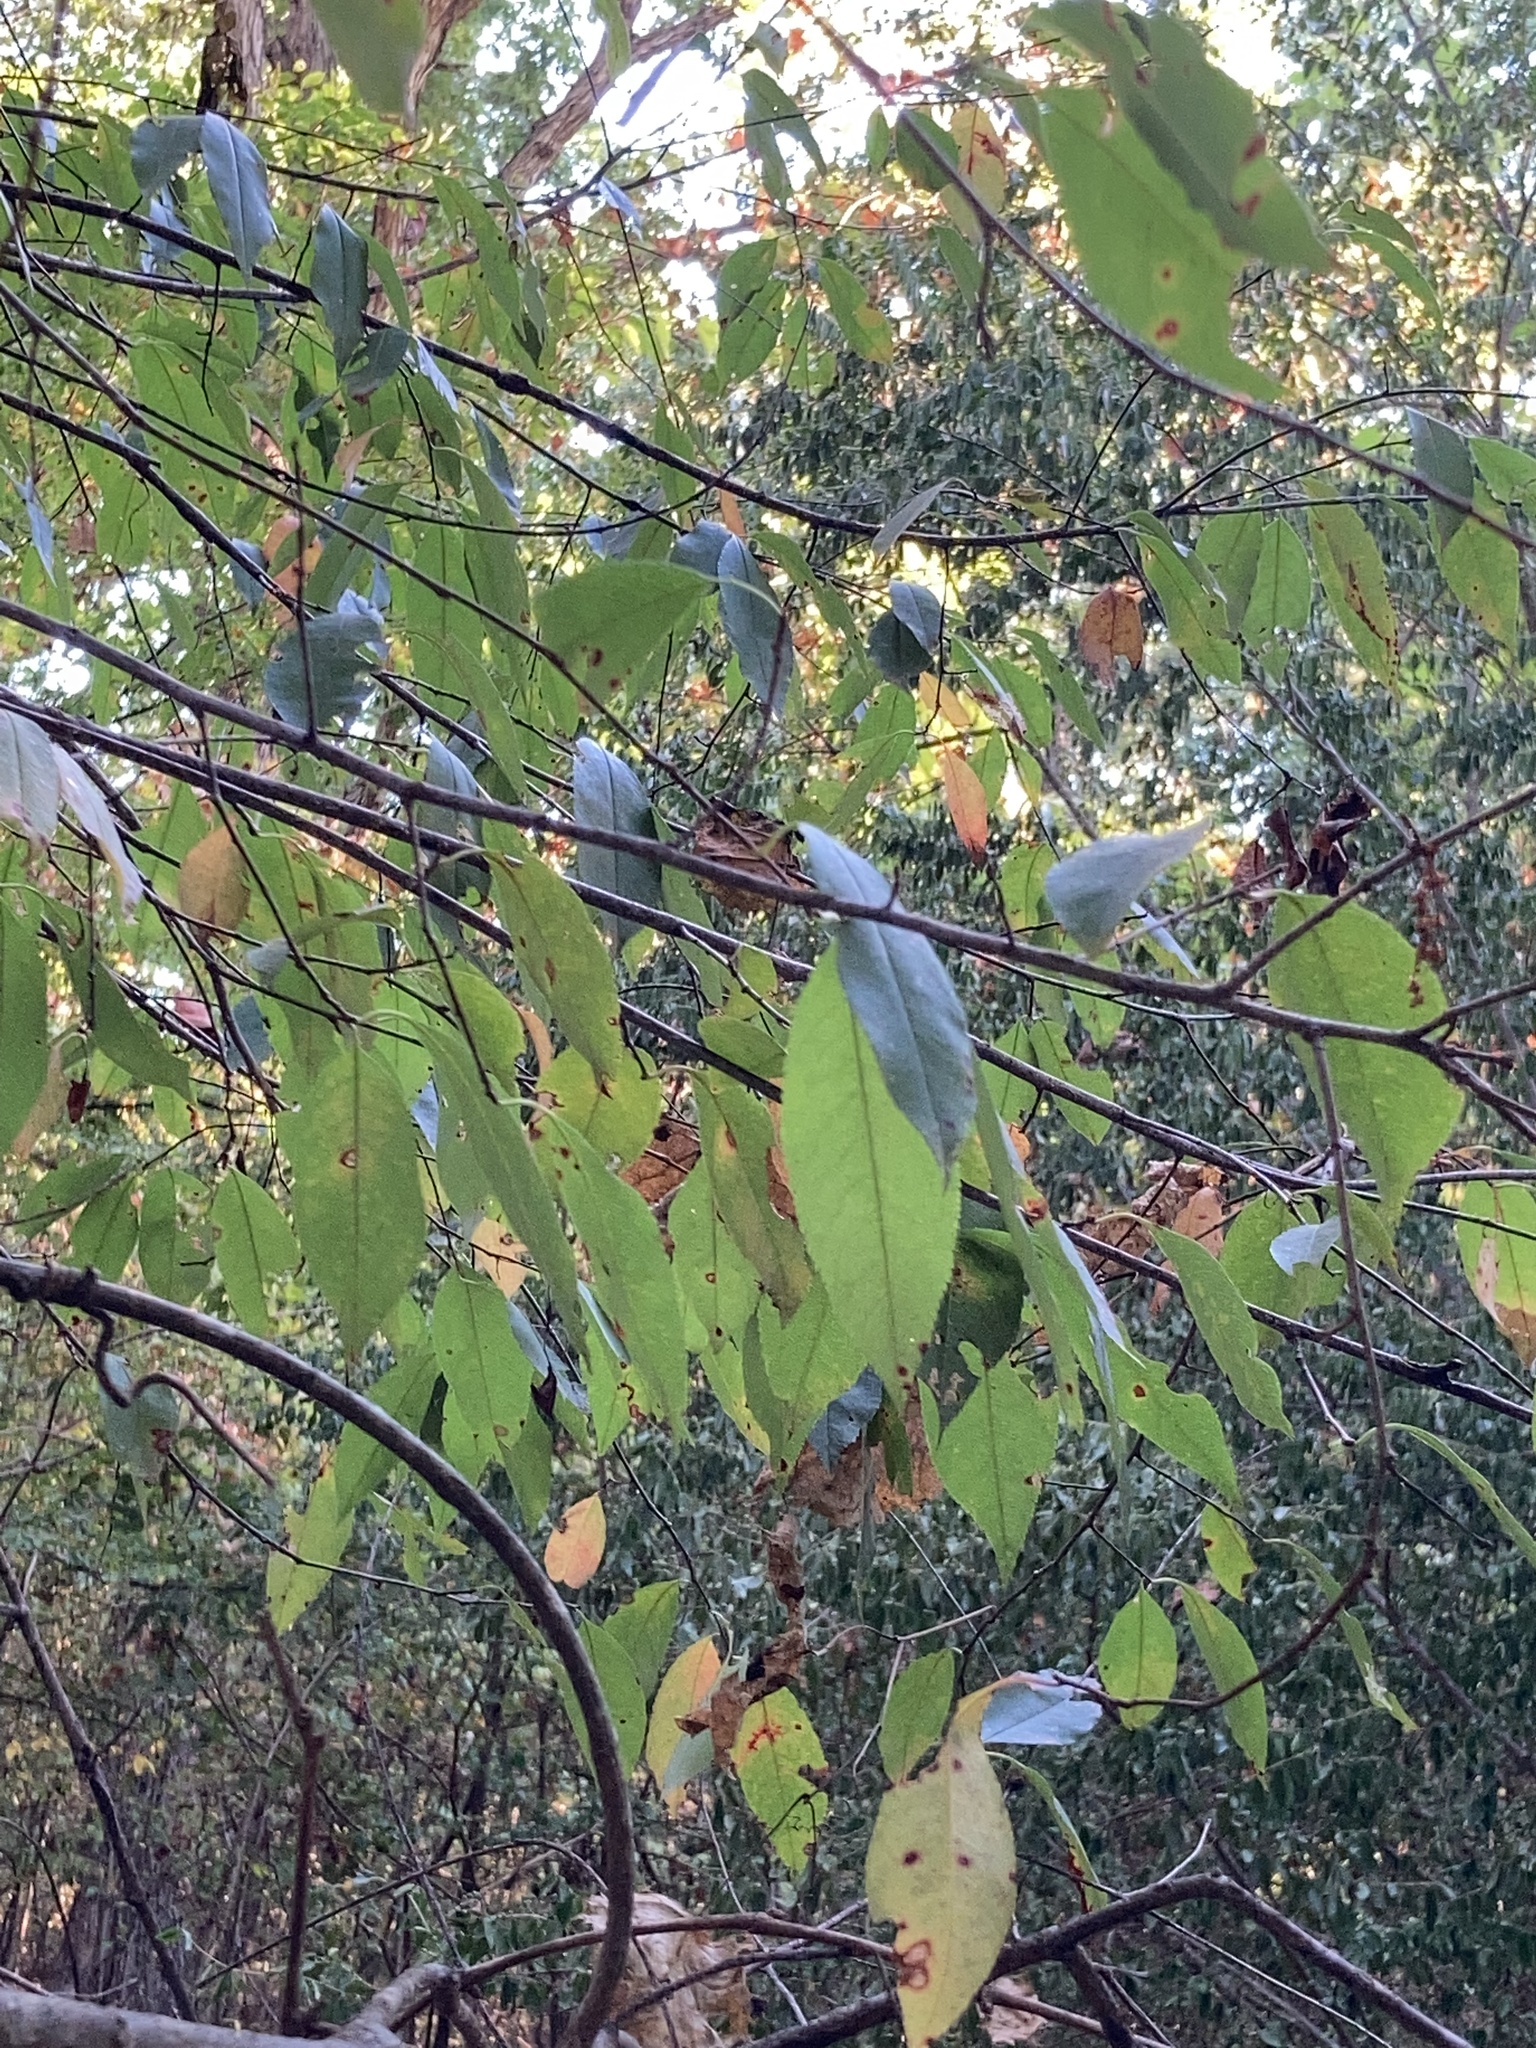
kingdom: Plantae
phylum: Tracheophyta
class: Magnoliopsida
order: Rosales
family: Rosaceae
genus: Prunus
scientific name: Prunus serotina
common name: Black cherry
